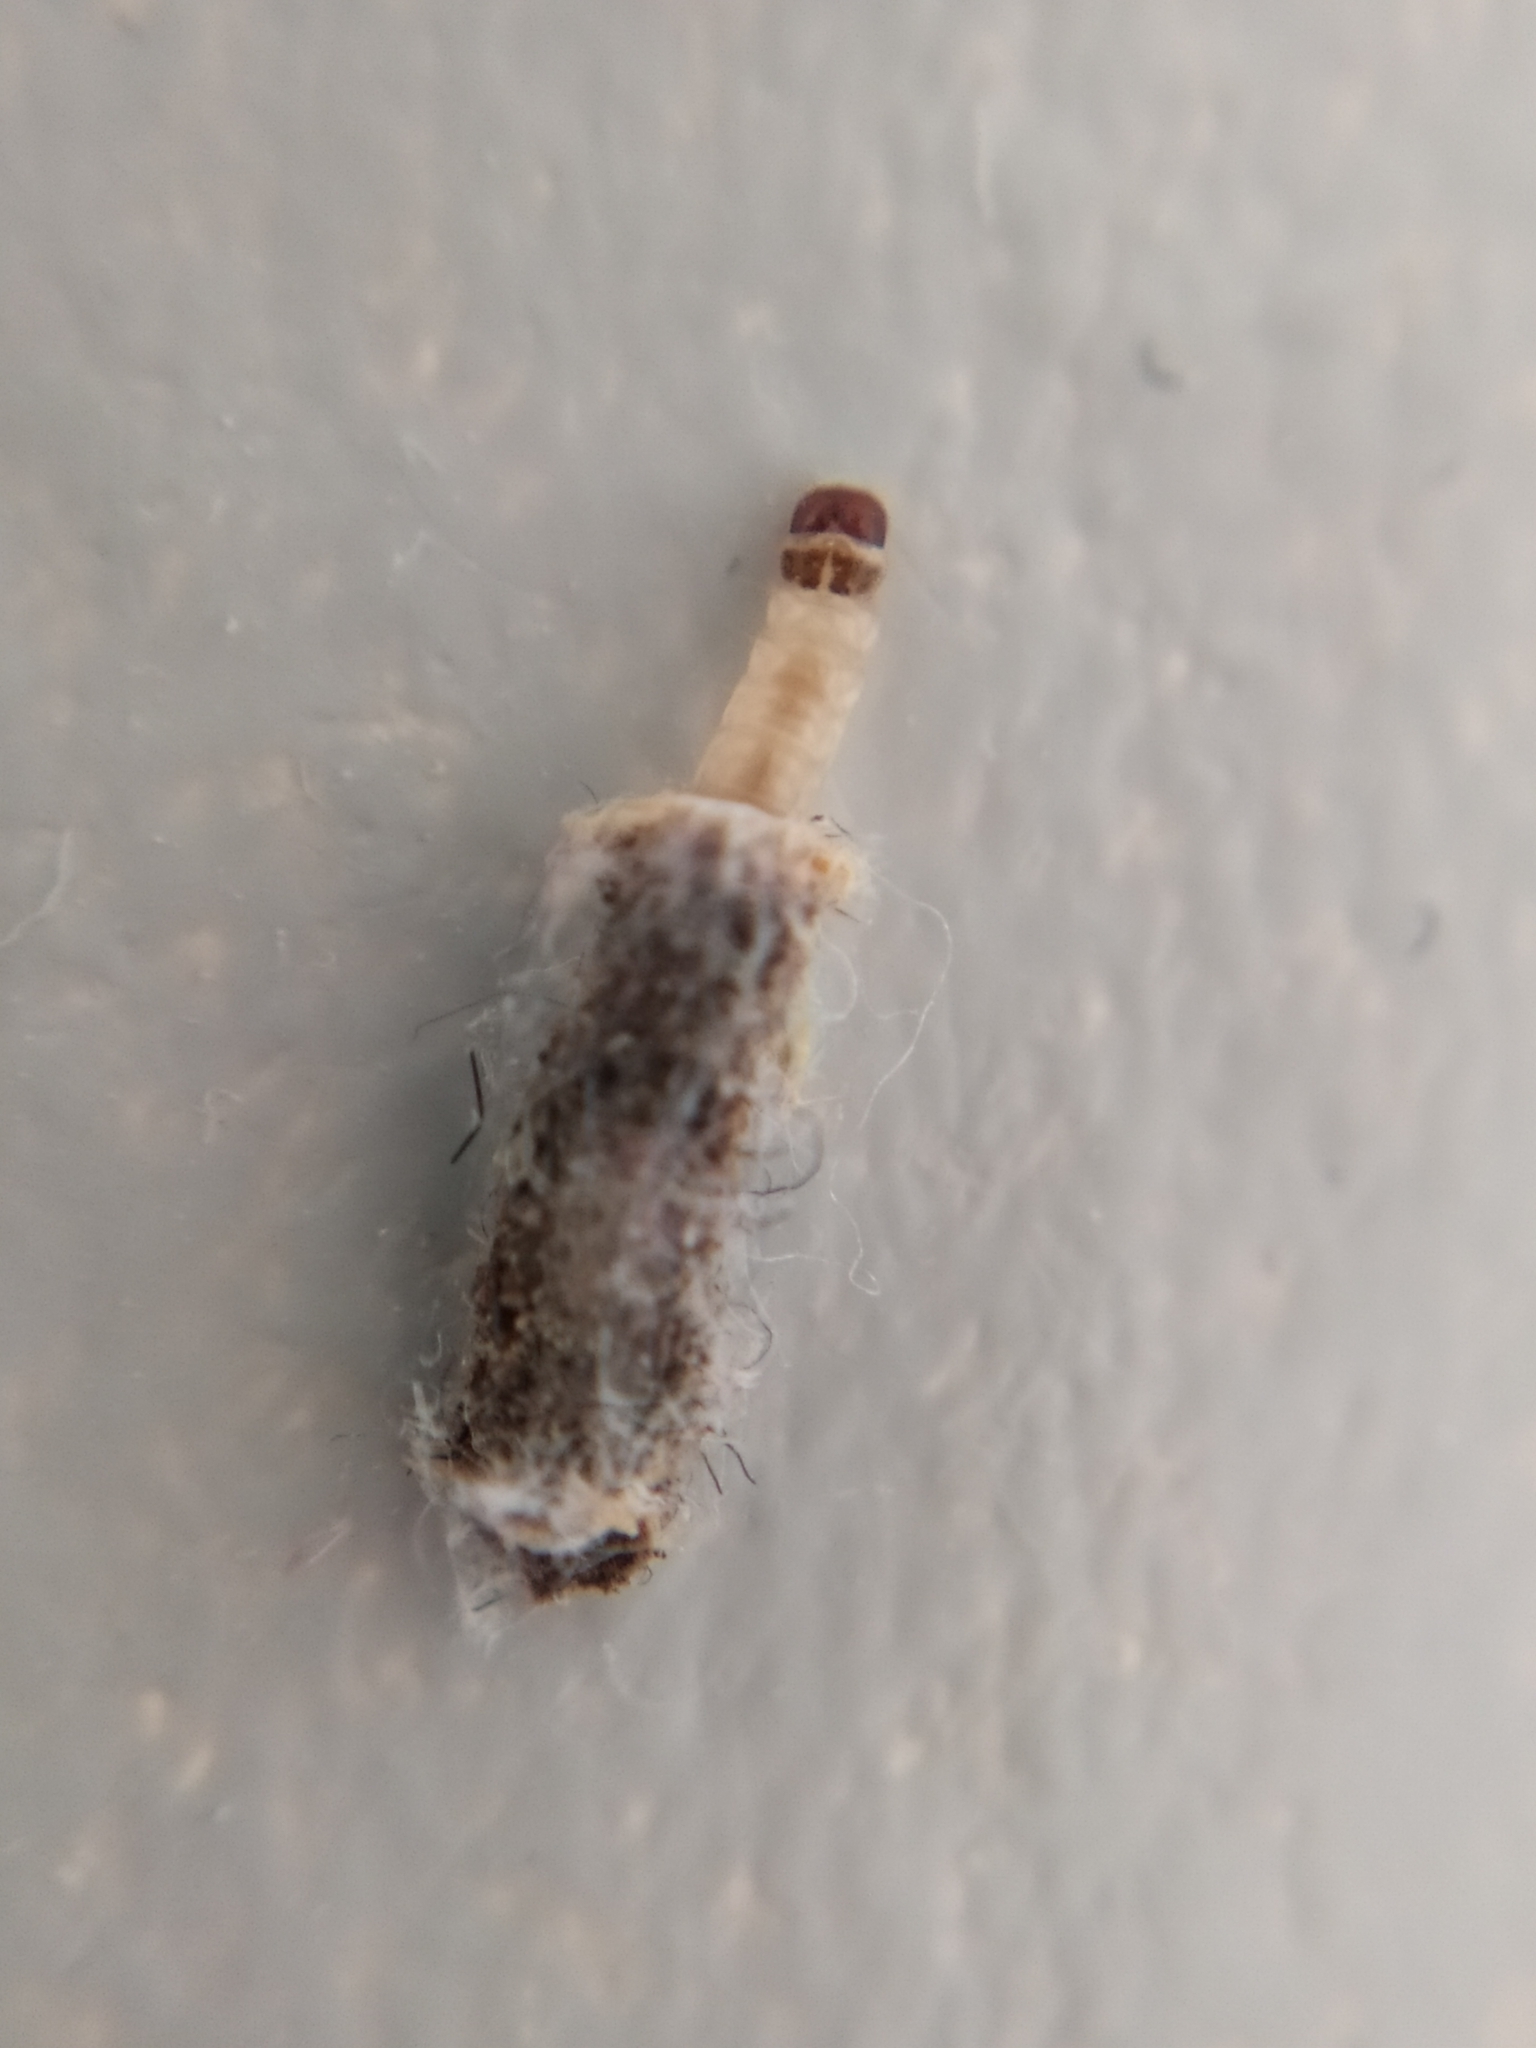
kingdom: Animalia
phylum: Arthropoda
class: Insecta
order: Lepidoptera
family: Tineidae
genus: Tinea
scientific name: Tinea pellionella
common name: Case-making clothes moth
